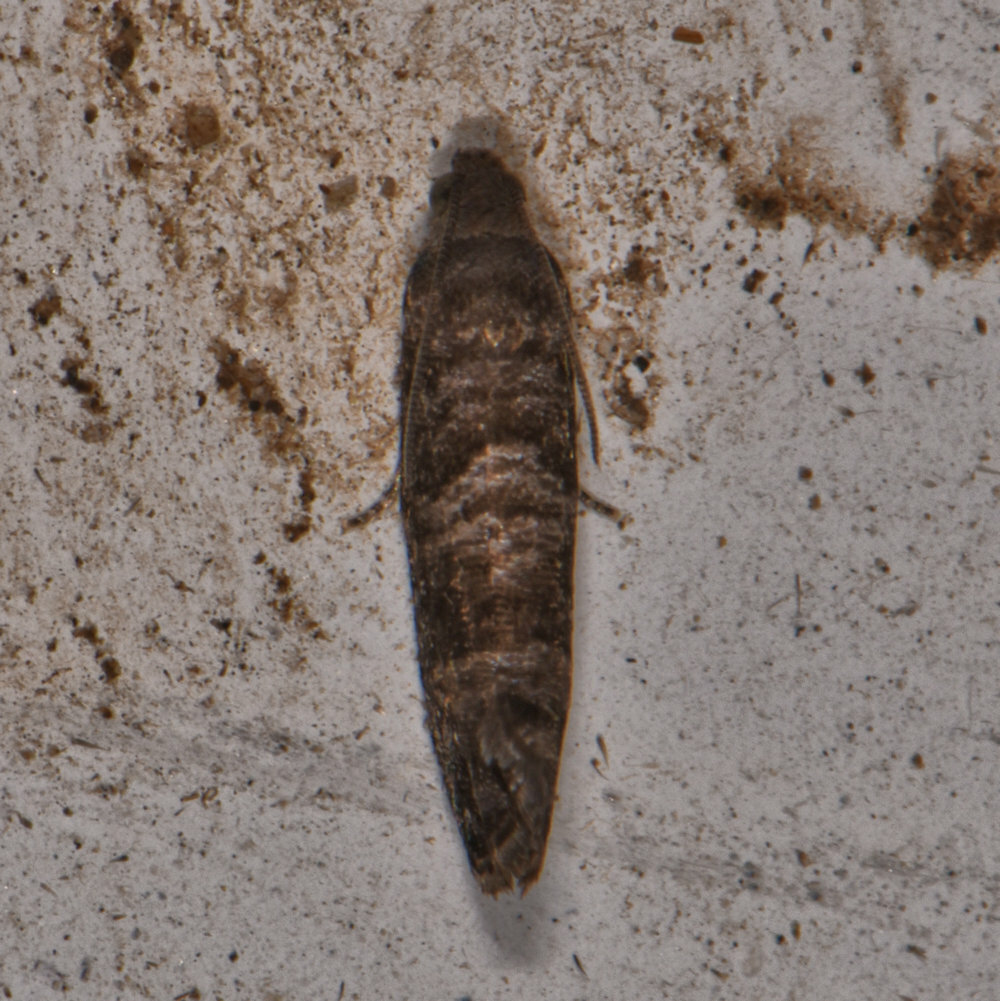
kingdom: Animalia
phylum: Arthropoda
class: Insecta
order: Lepidoptera
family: Noctuidae
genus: Aspila
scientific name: Aspila
